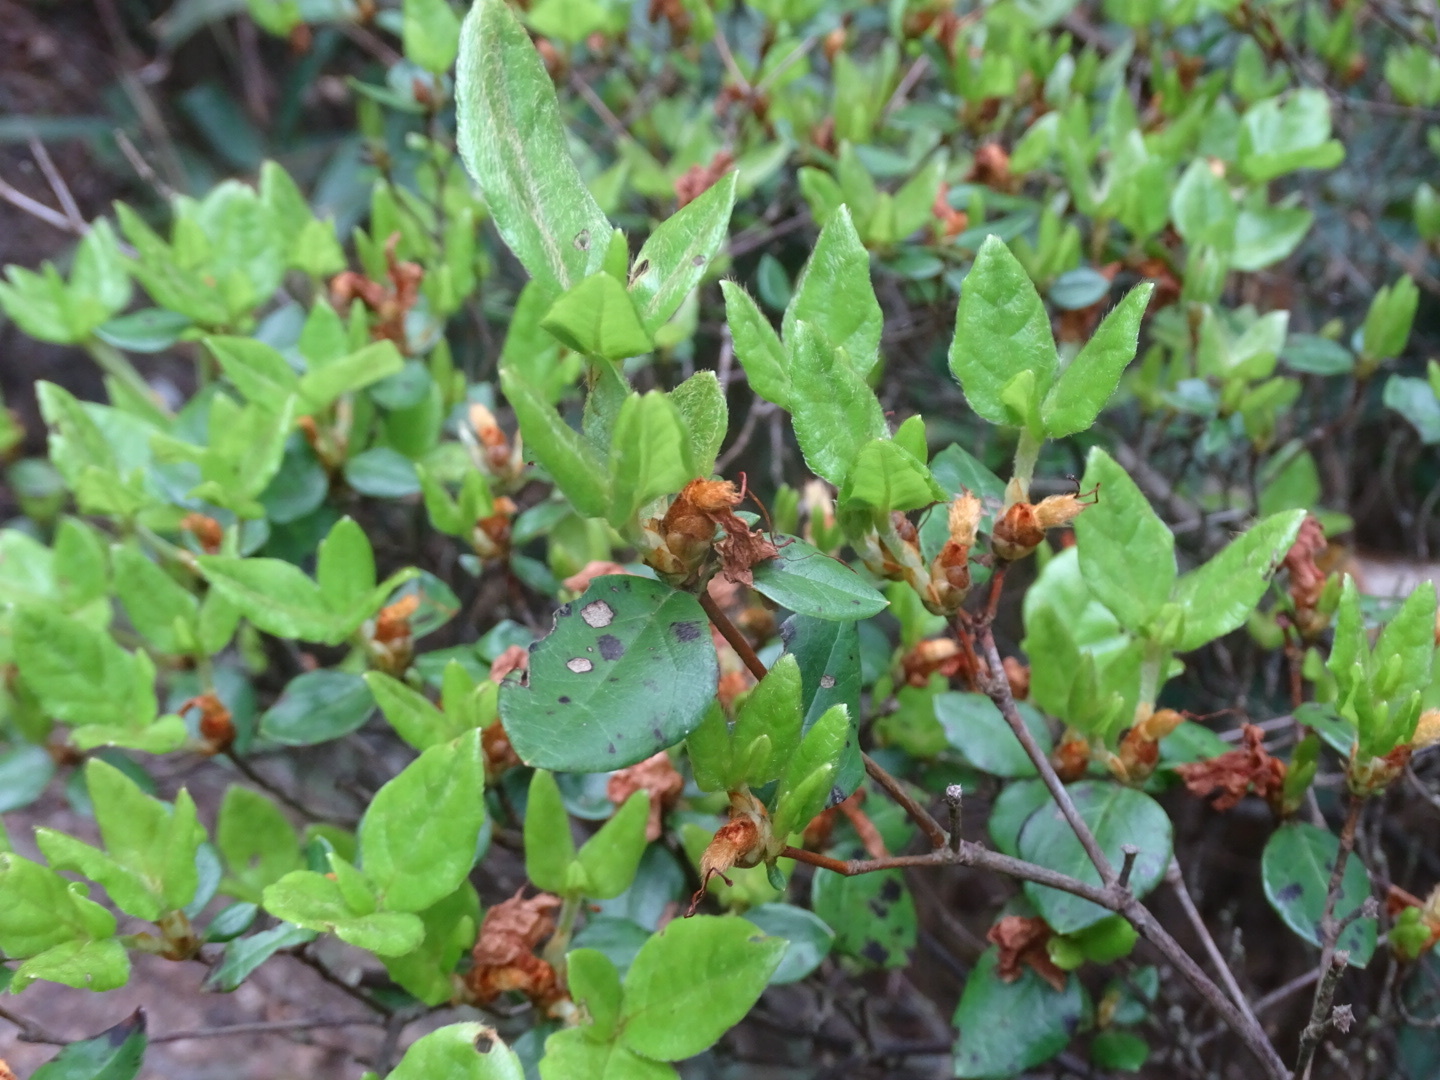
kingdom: Plantae
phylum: Tracheophyta
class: Magnoliopsida
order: Ericales
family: Ericaceae
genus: Rhododendron
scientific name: Rhododendron farrerae
